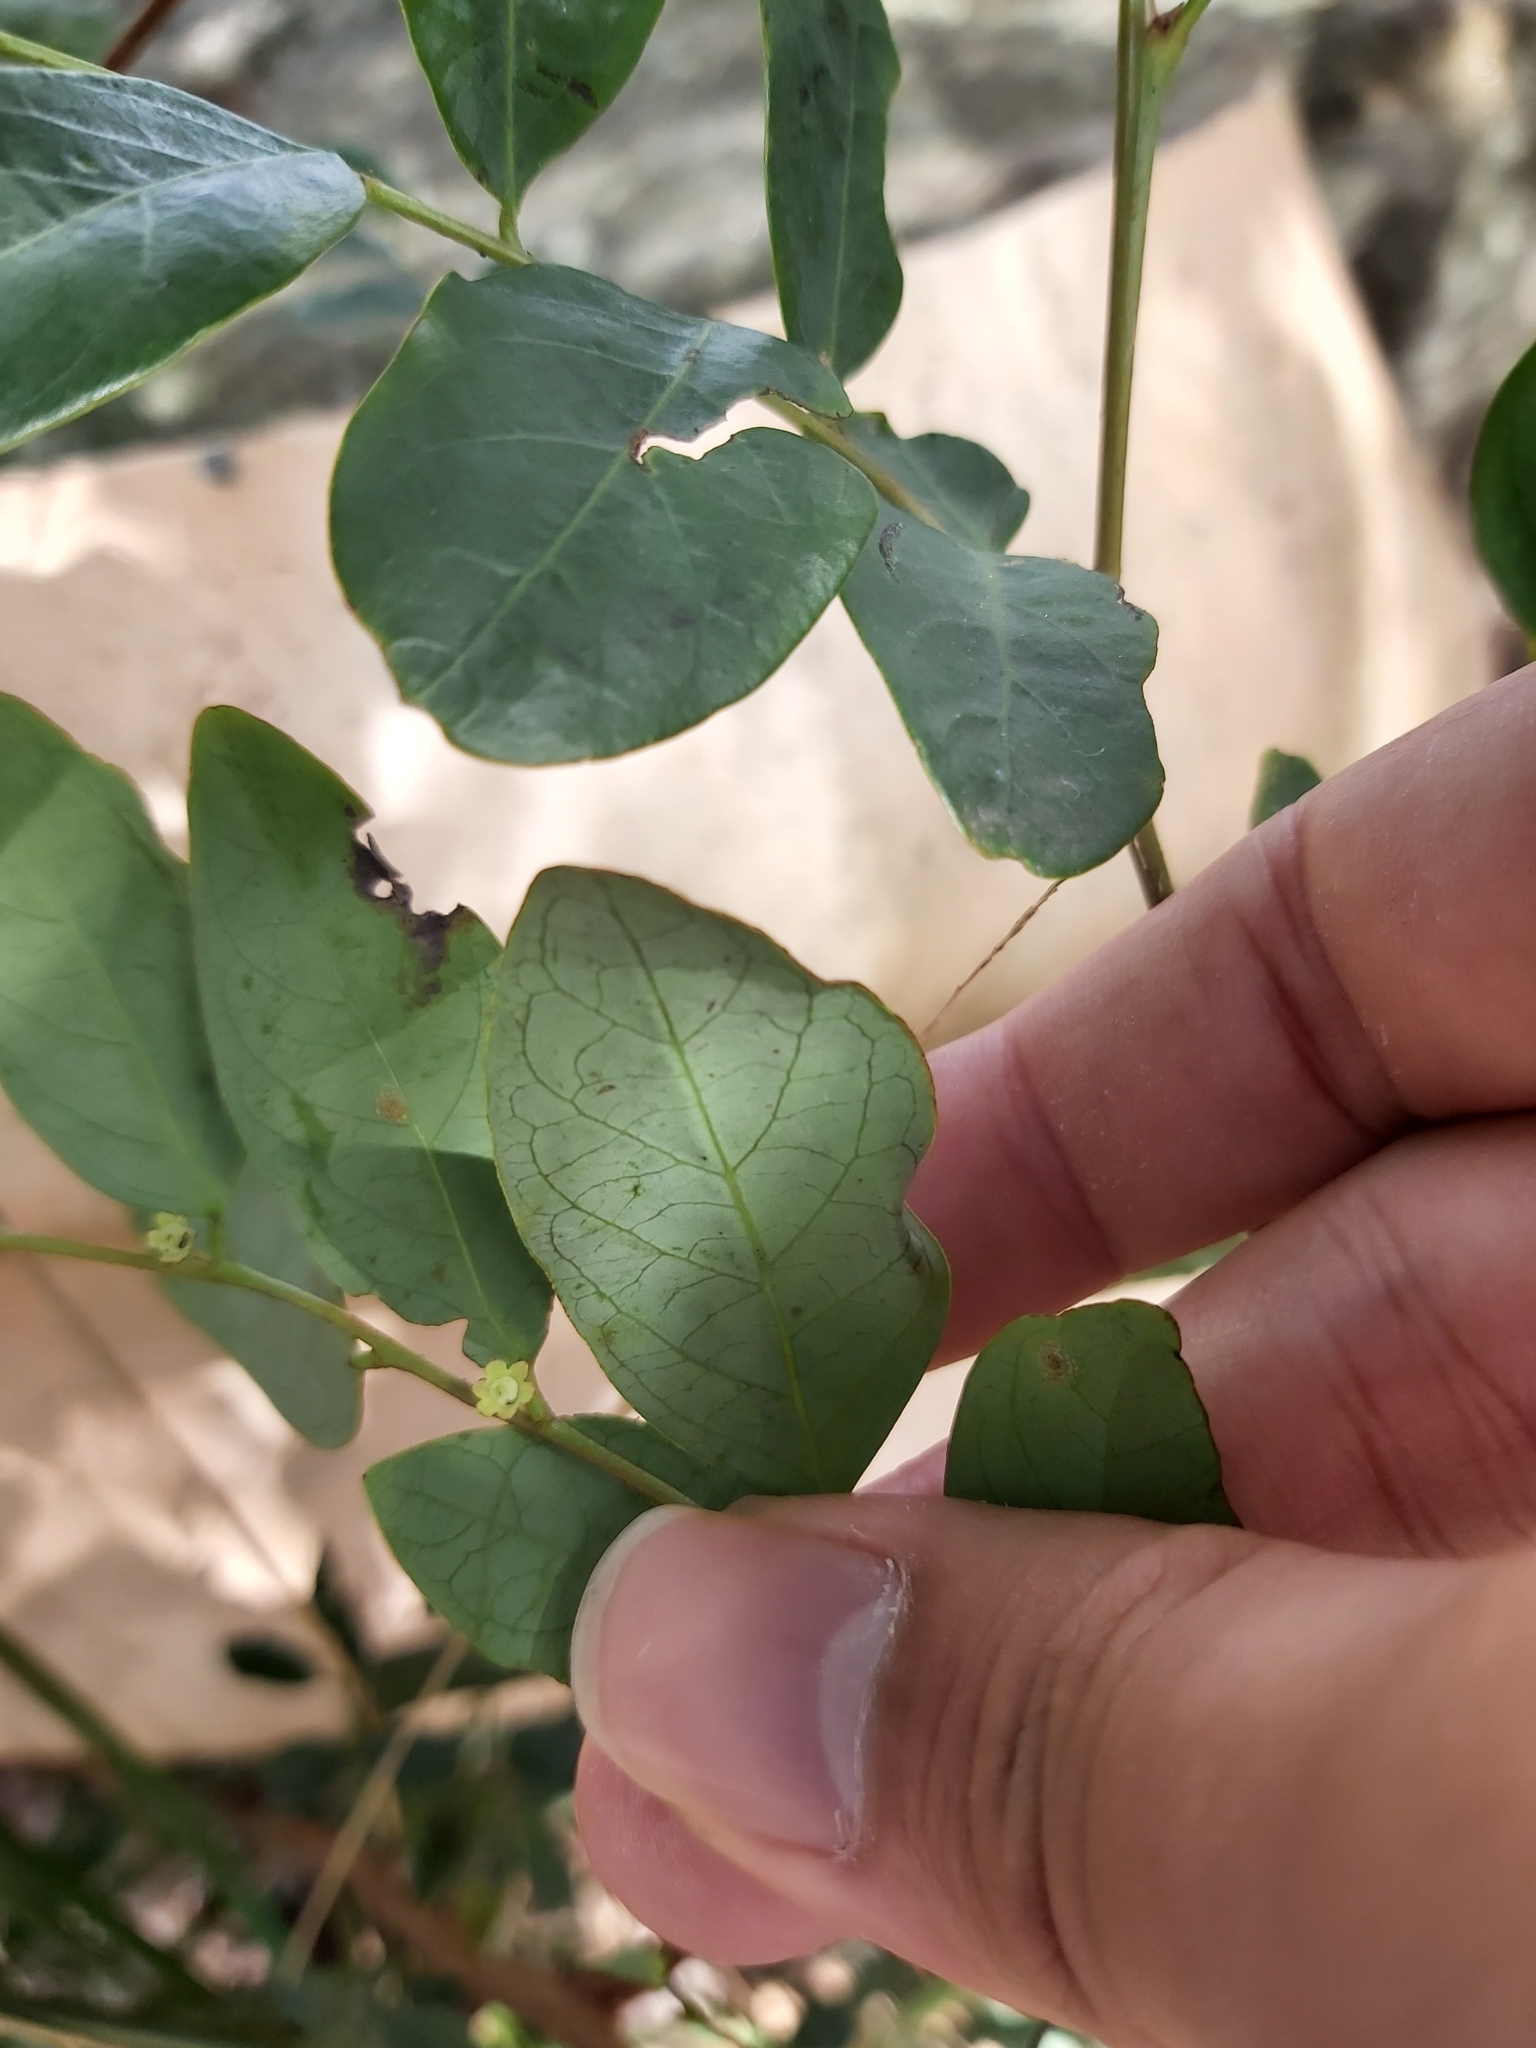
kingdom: Animalia
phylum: Arthropoda
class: Insecta
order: Lepidoptera
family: Gracillariidae
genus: Phyllocnistis
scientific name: Phyllocnistis diaugella
